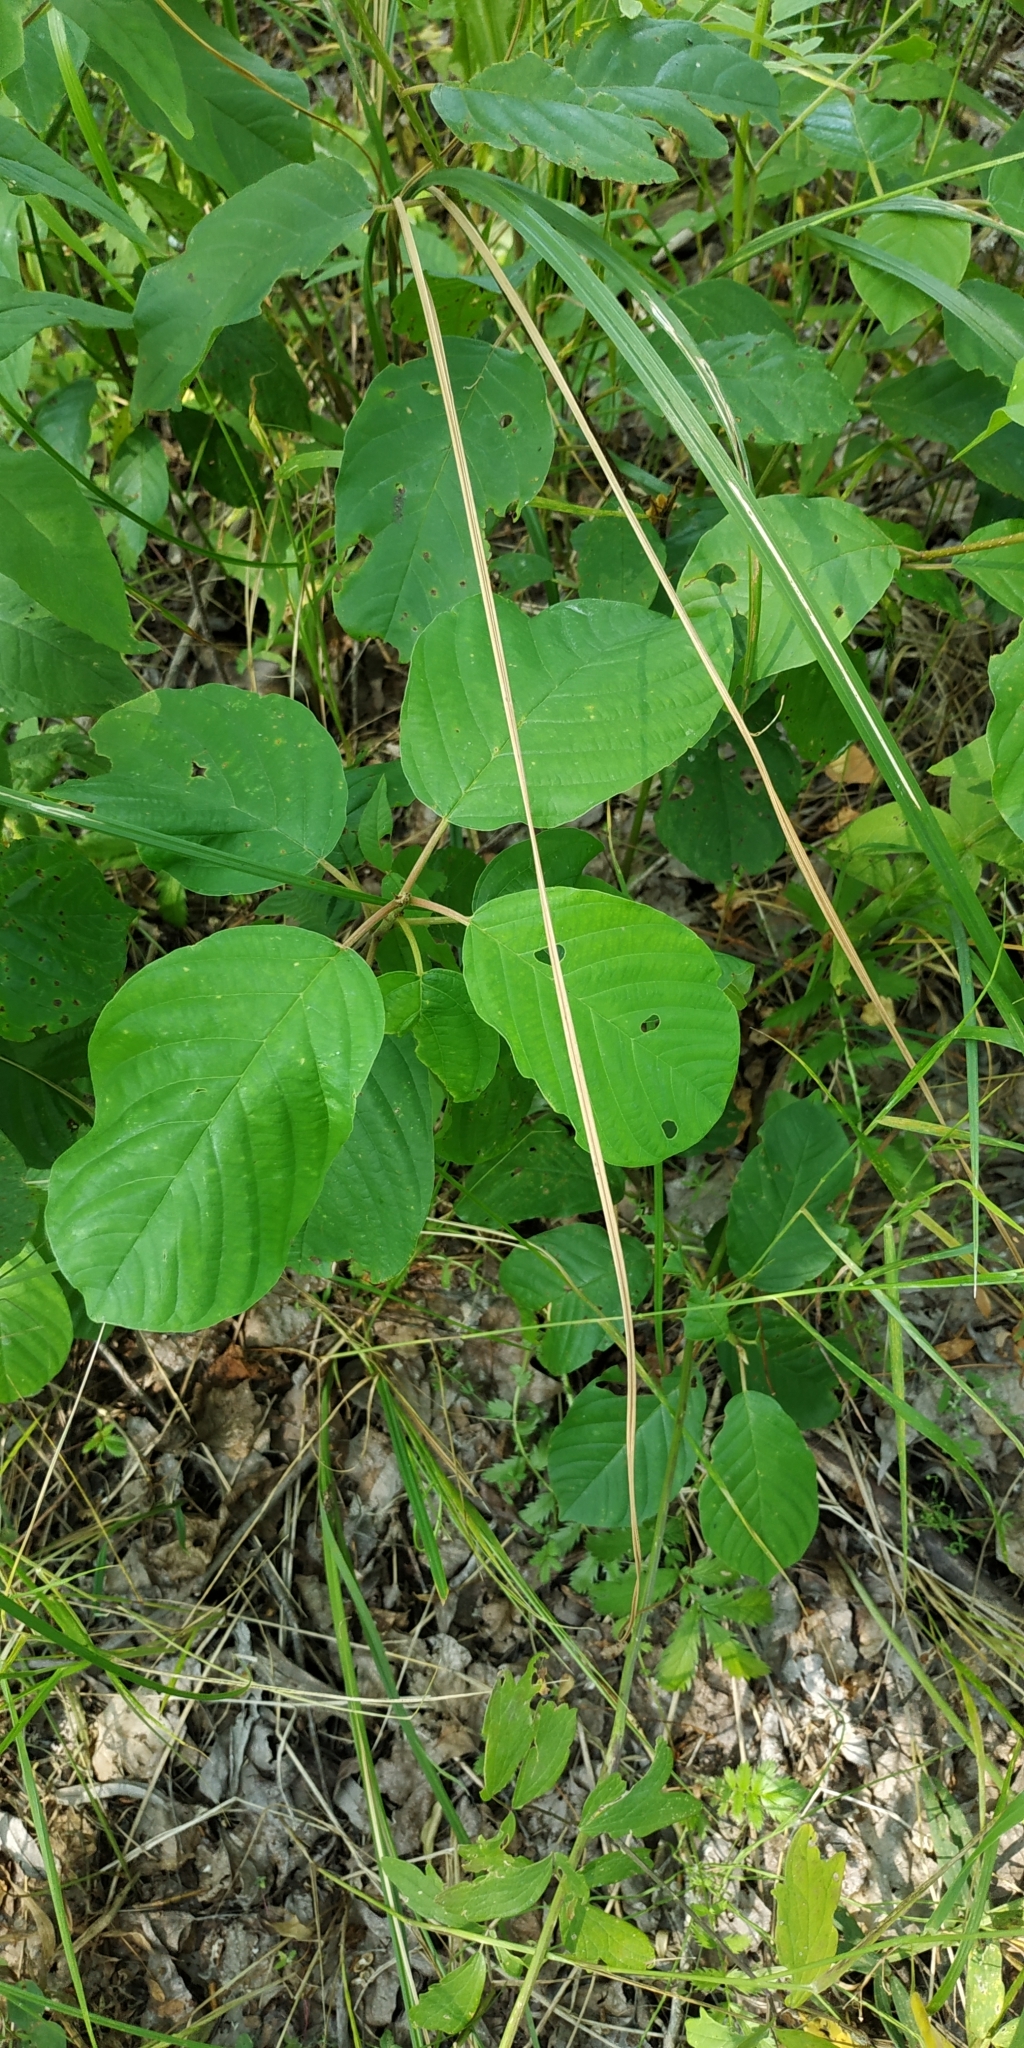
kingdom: Plantae
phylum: Tracheophyta
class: Magnoliopsida
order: Rosales
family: Rhamnaceae
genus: Frangula
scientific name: Frangula alnus
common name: Alder buckthorn
